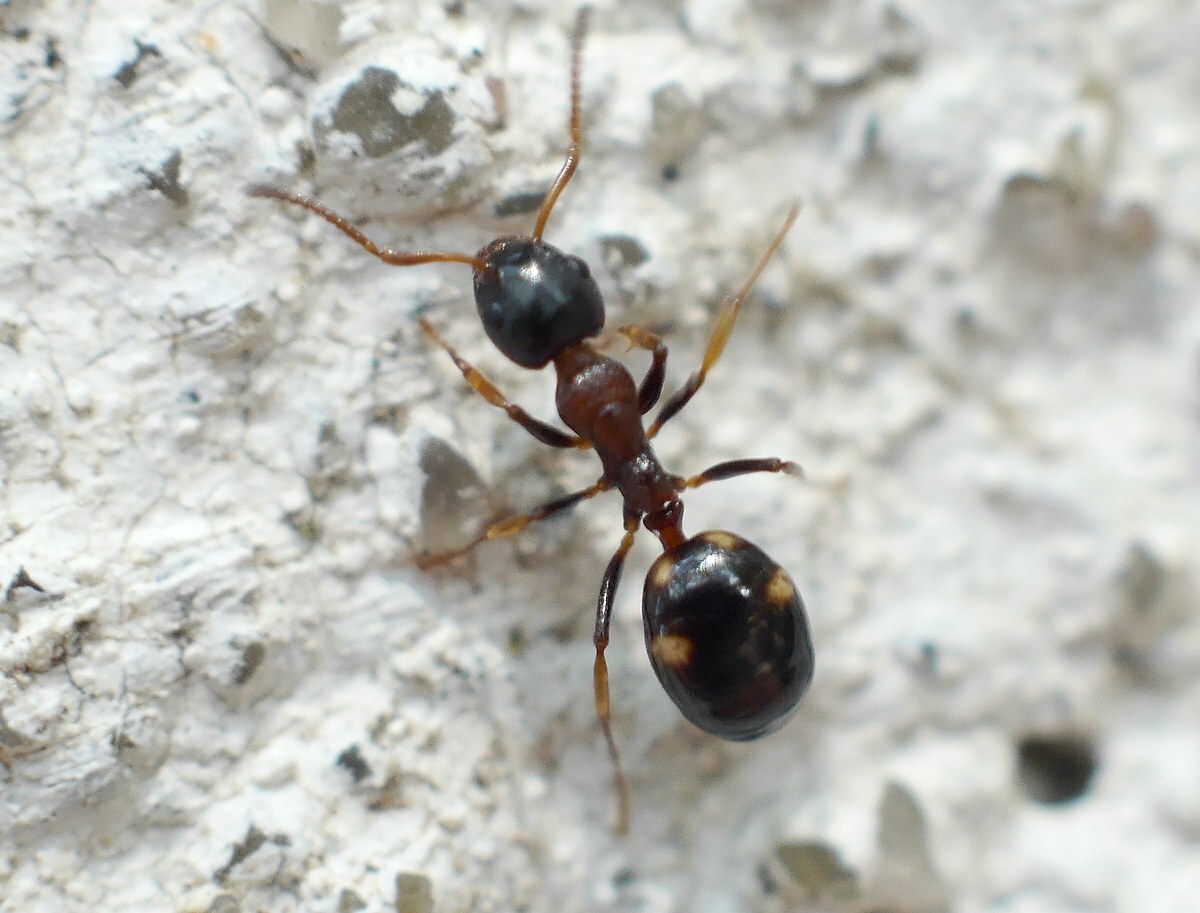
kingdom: Animalia
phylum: Arthropoda
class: Insecta
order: Hymenoptera
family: Formicidae
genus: Dolichoderus
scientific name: Dolichoderus quadripunctatus
